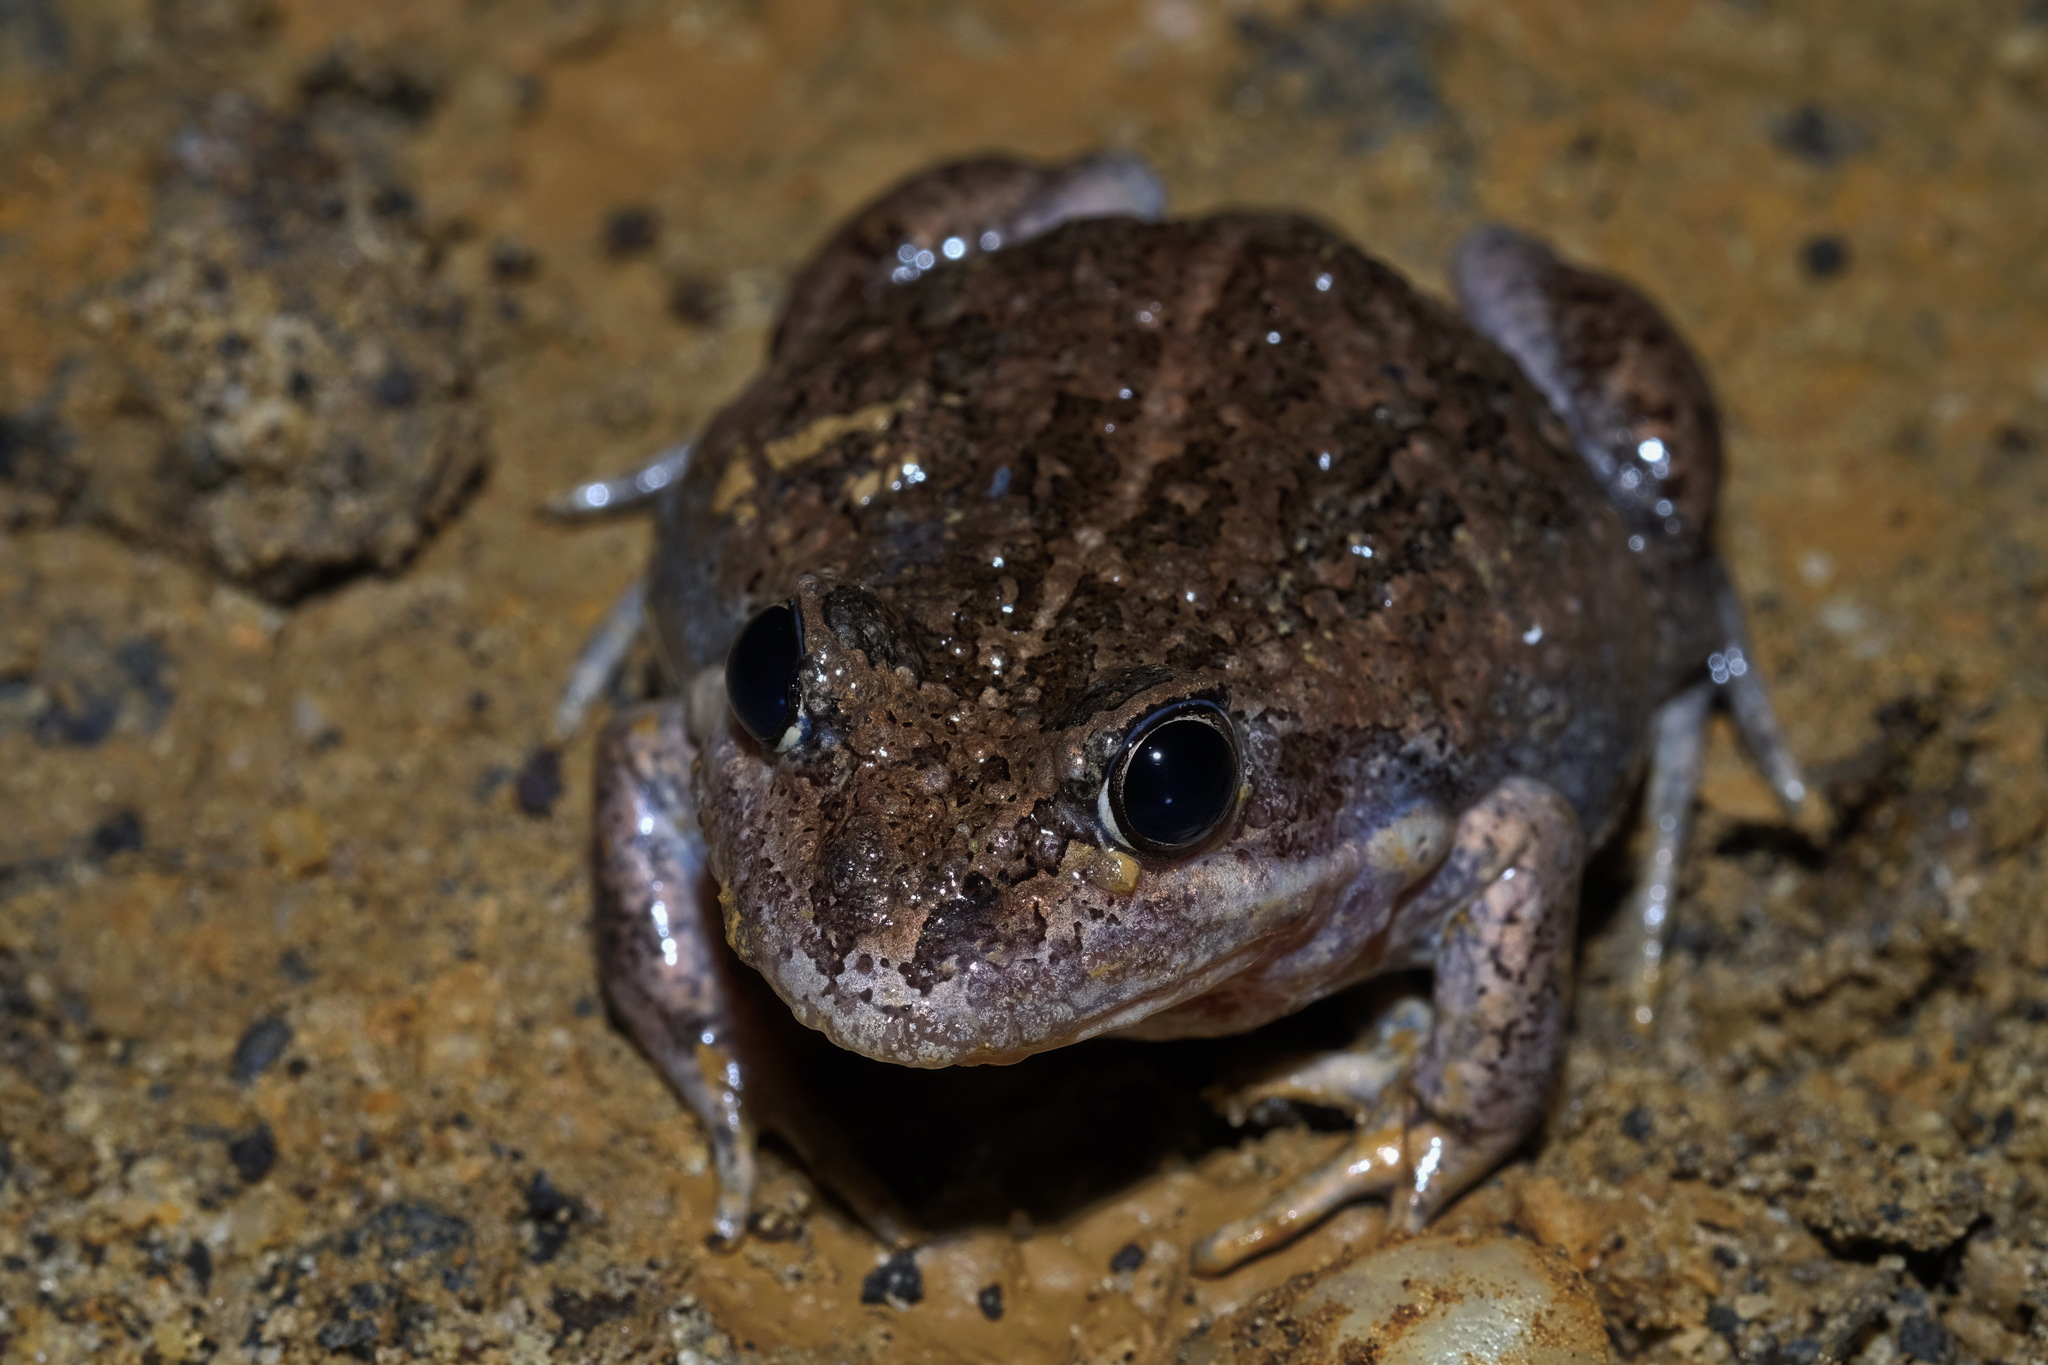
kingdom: Animalia
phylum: Chordata
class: Amphibia
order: Anura
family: Limnodynastidae
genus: Limnodynastes
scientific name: Limnodynastes dumerilii
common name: Banjo frog
